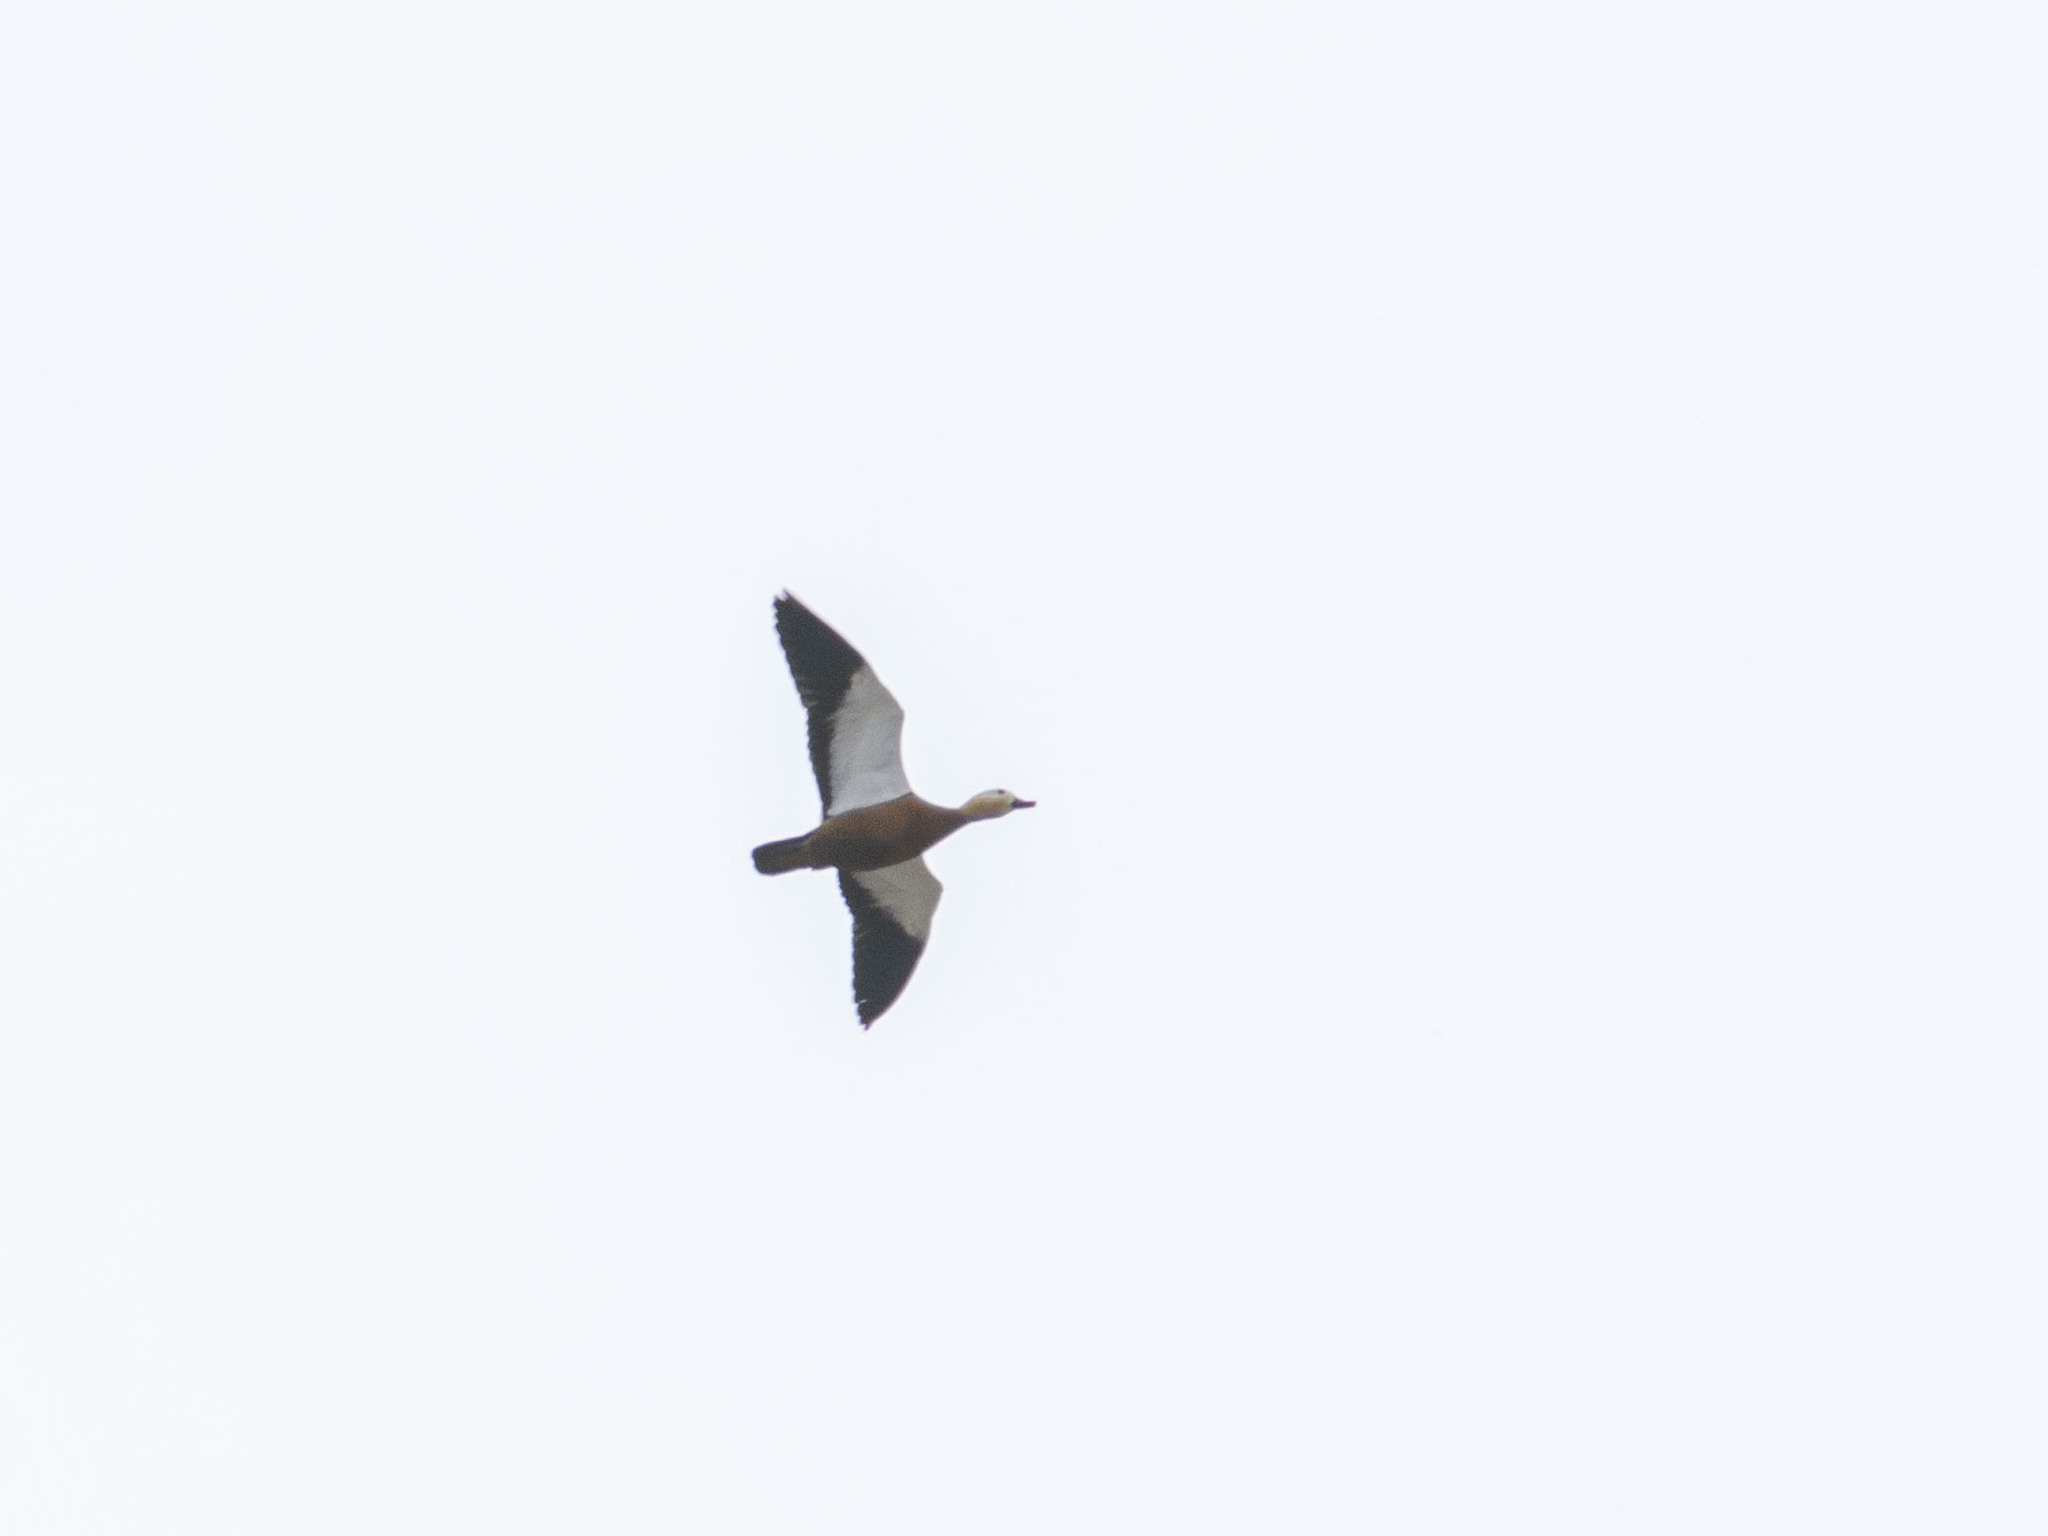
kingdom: Animalia
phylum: Chordata
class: Aves
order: Anseriformes
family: Anatidae
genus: Tadorna
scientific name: Tadorna ferruginea
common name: Ruddy shelduck
